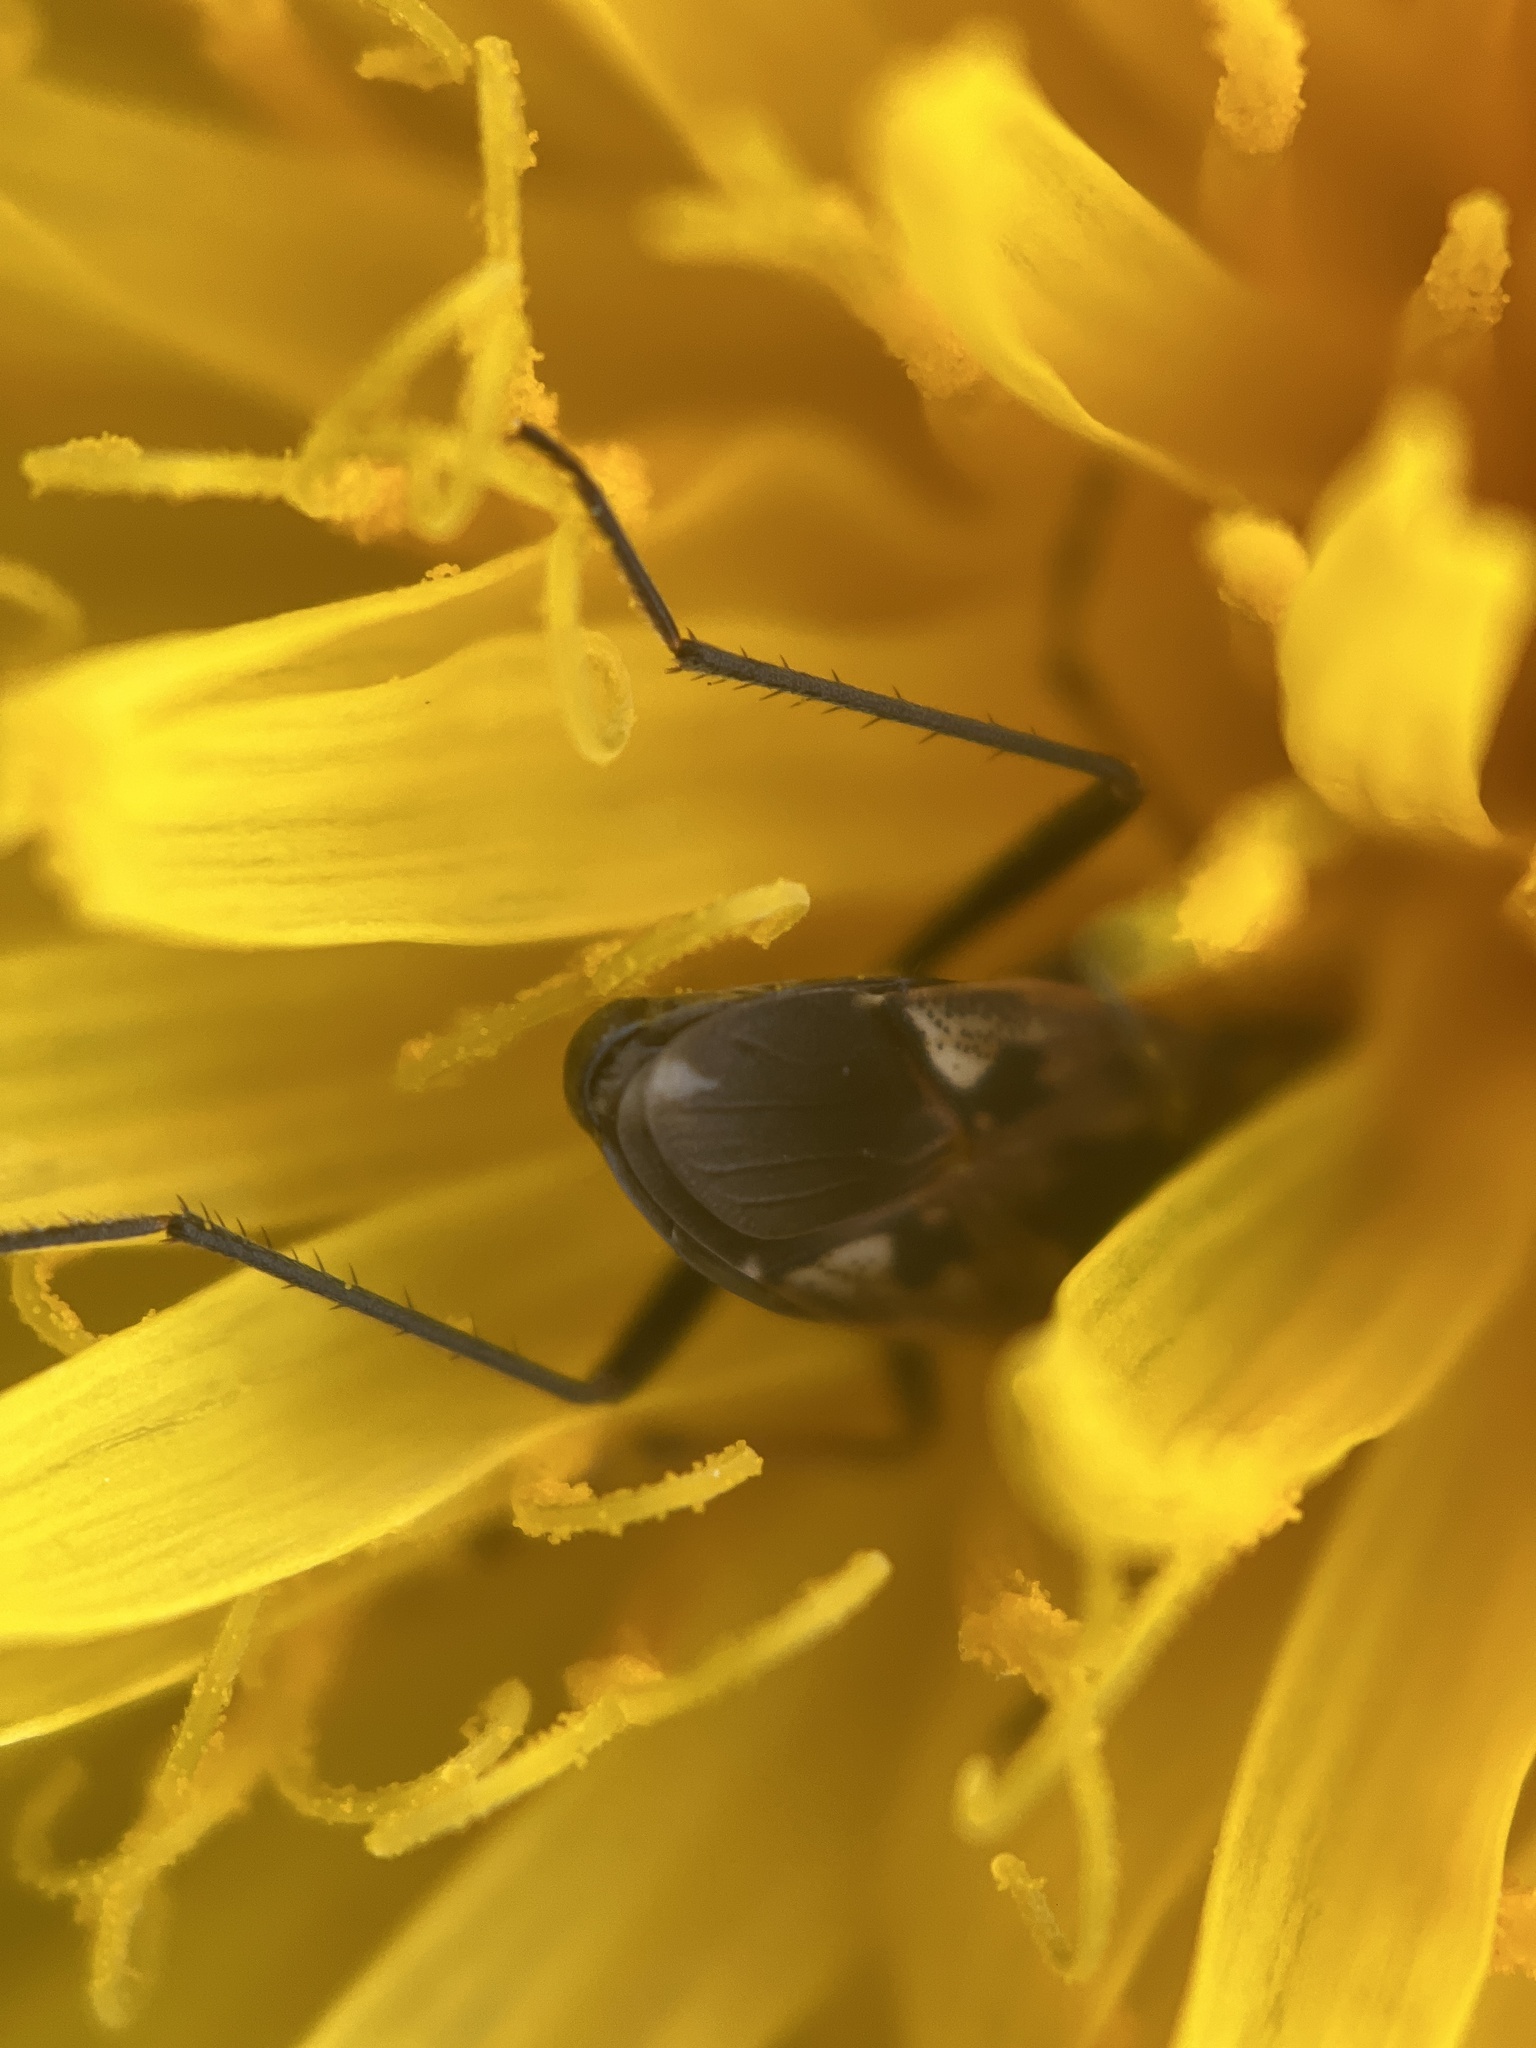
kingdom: Animalia
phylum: Arthropoda
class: Insecta
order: Hemiptera
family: Rhyparochromidae
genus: Rhyparochromus
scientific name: Rhyparochromus vulgaris
